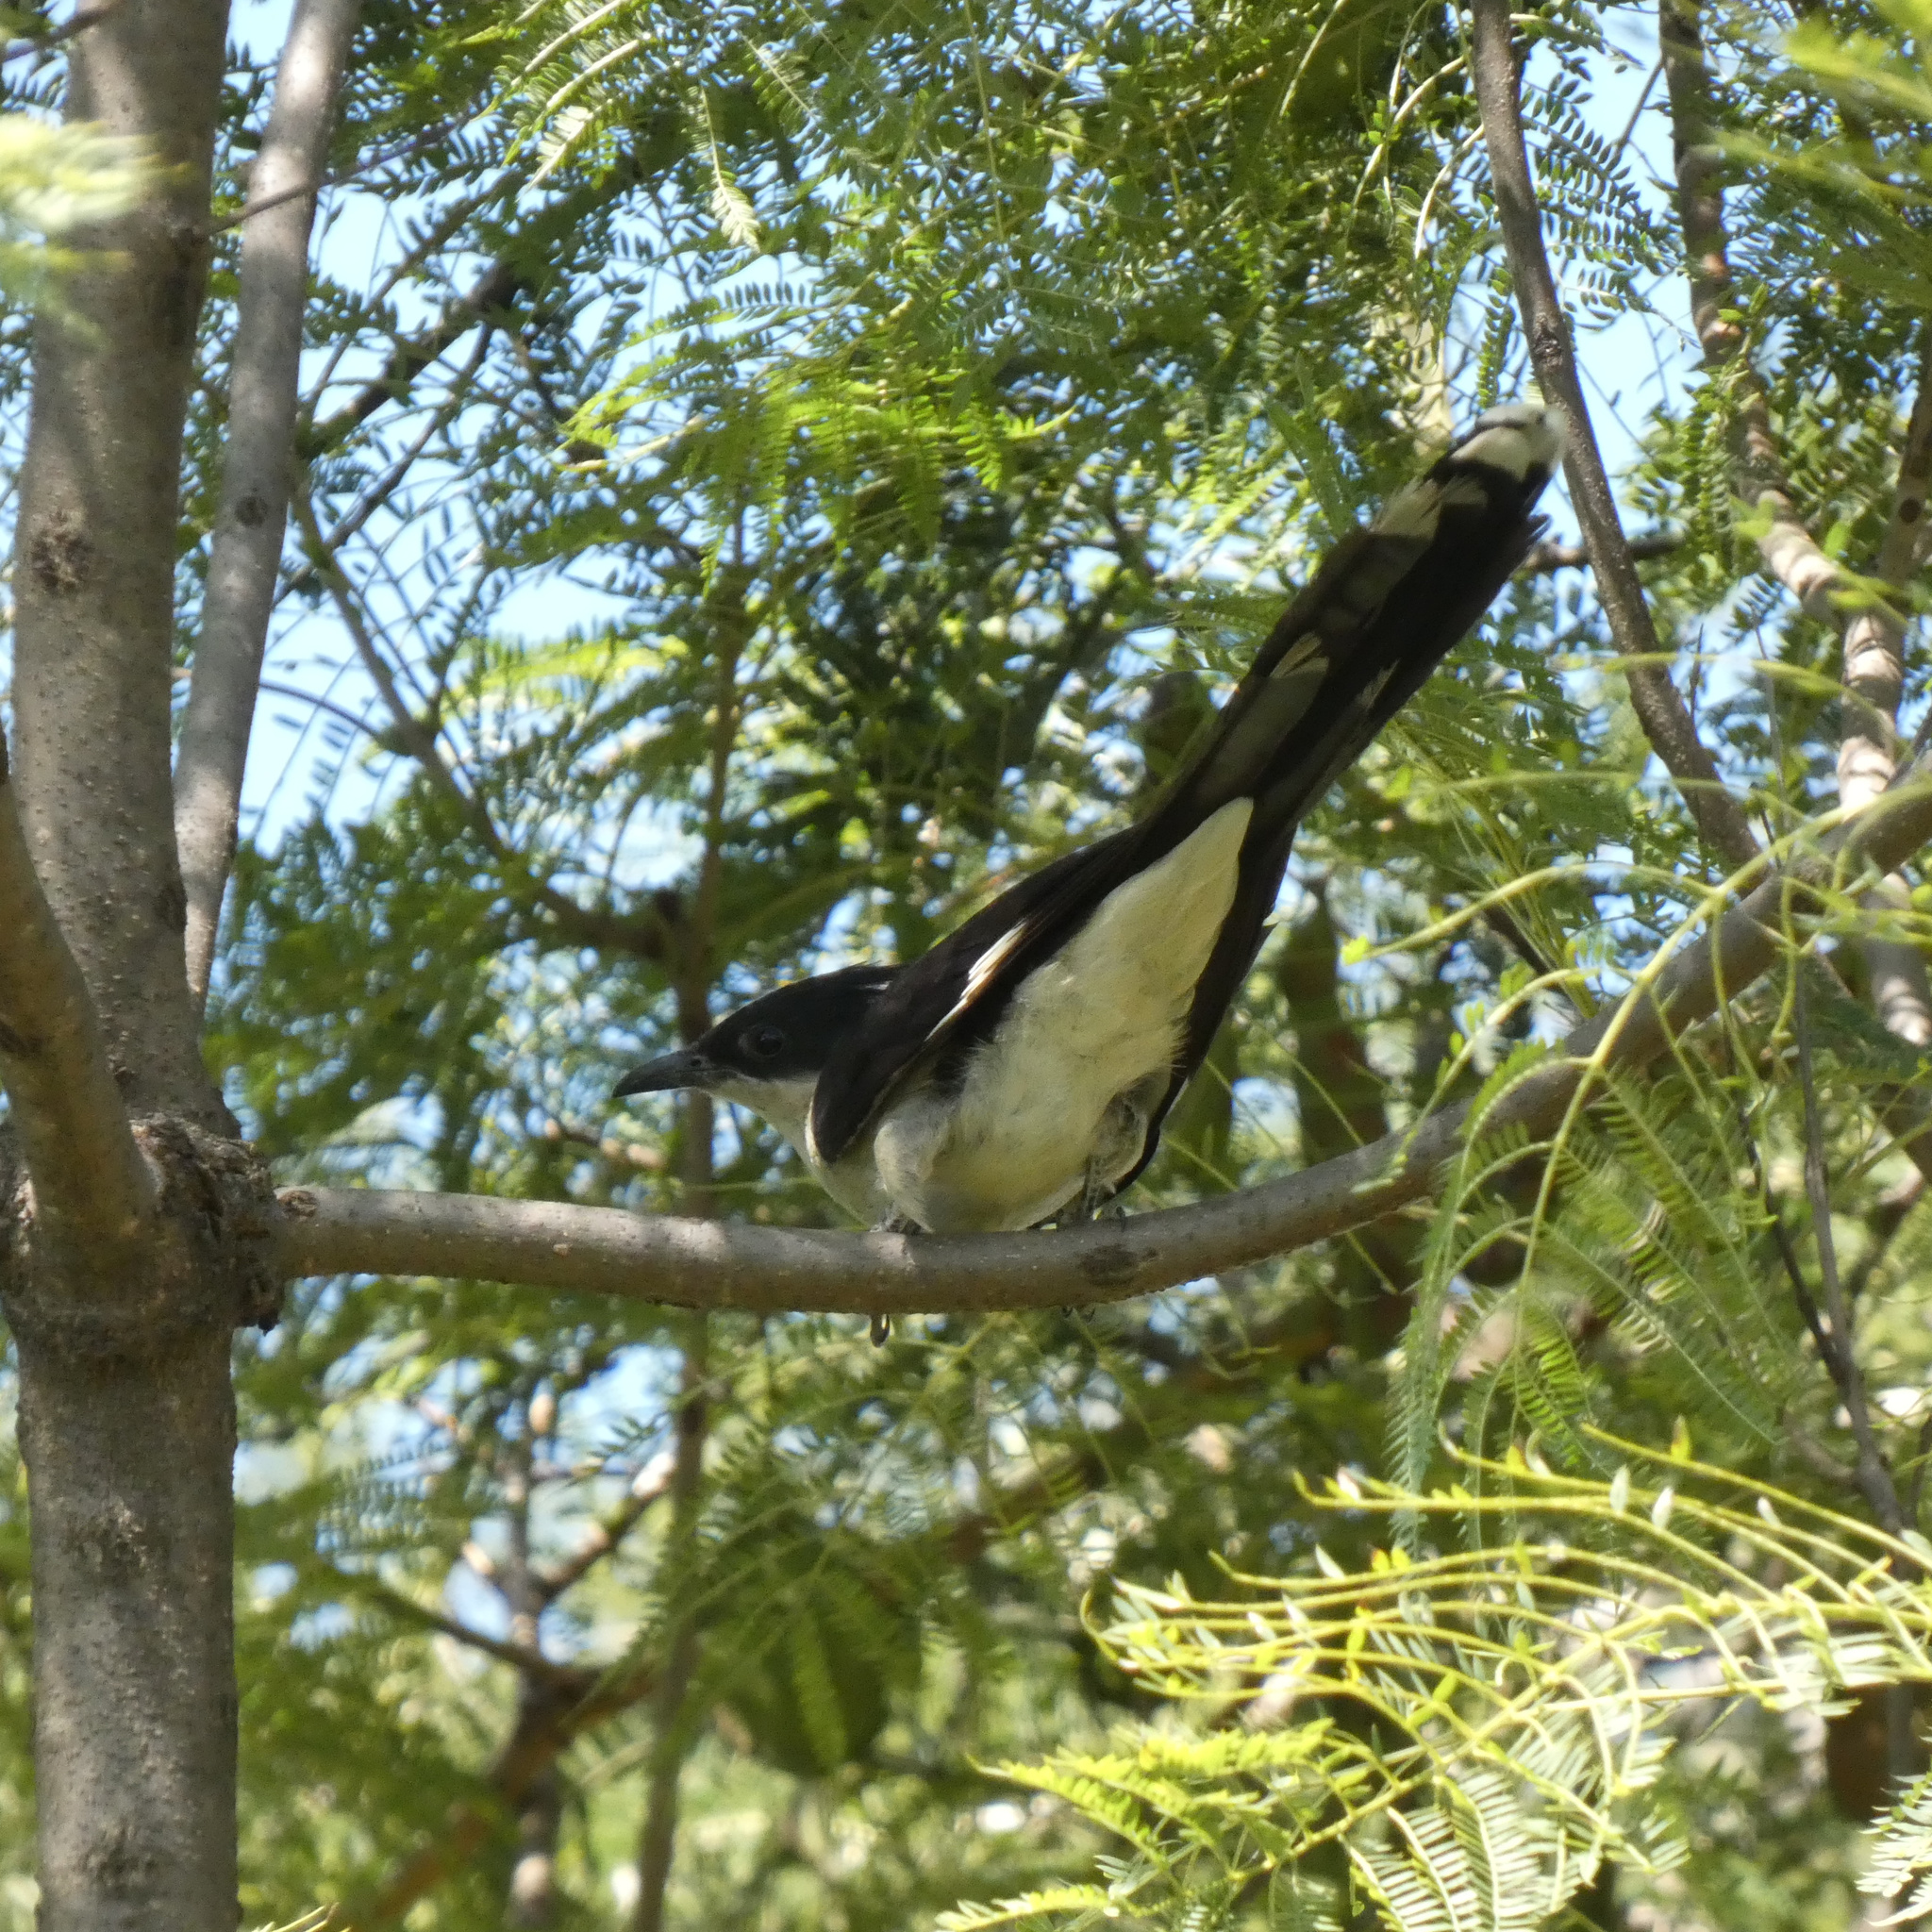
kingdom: Animalia
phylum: Chordata
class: Aves
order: Cuculiformes
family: Cuculidae
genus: Clamator
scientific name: Clamator jacobinus
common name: Jacobin cuckoo
